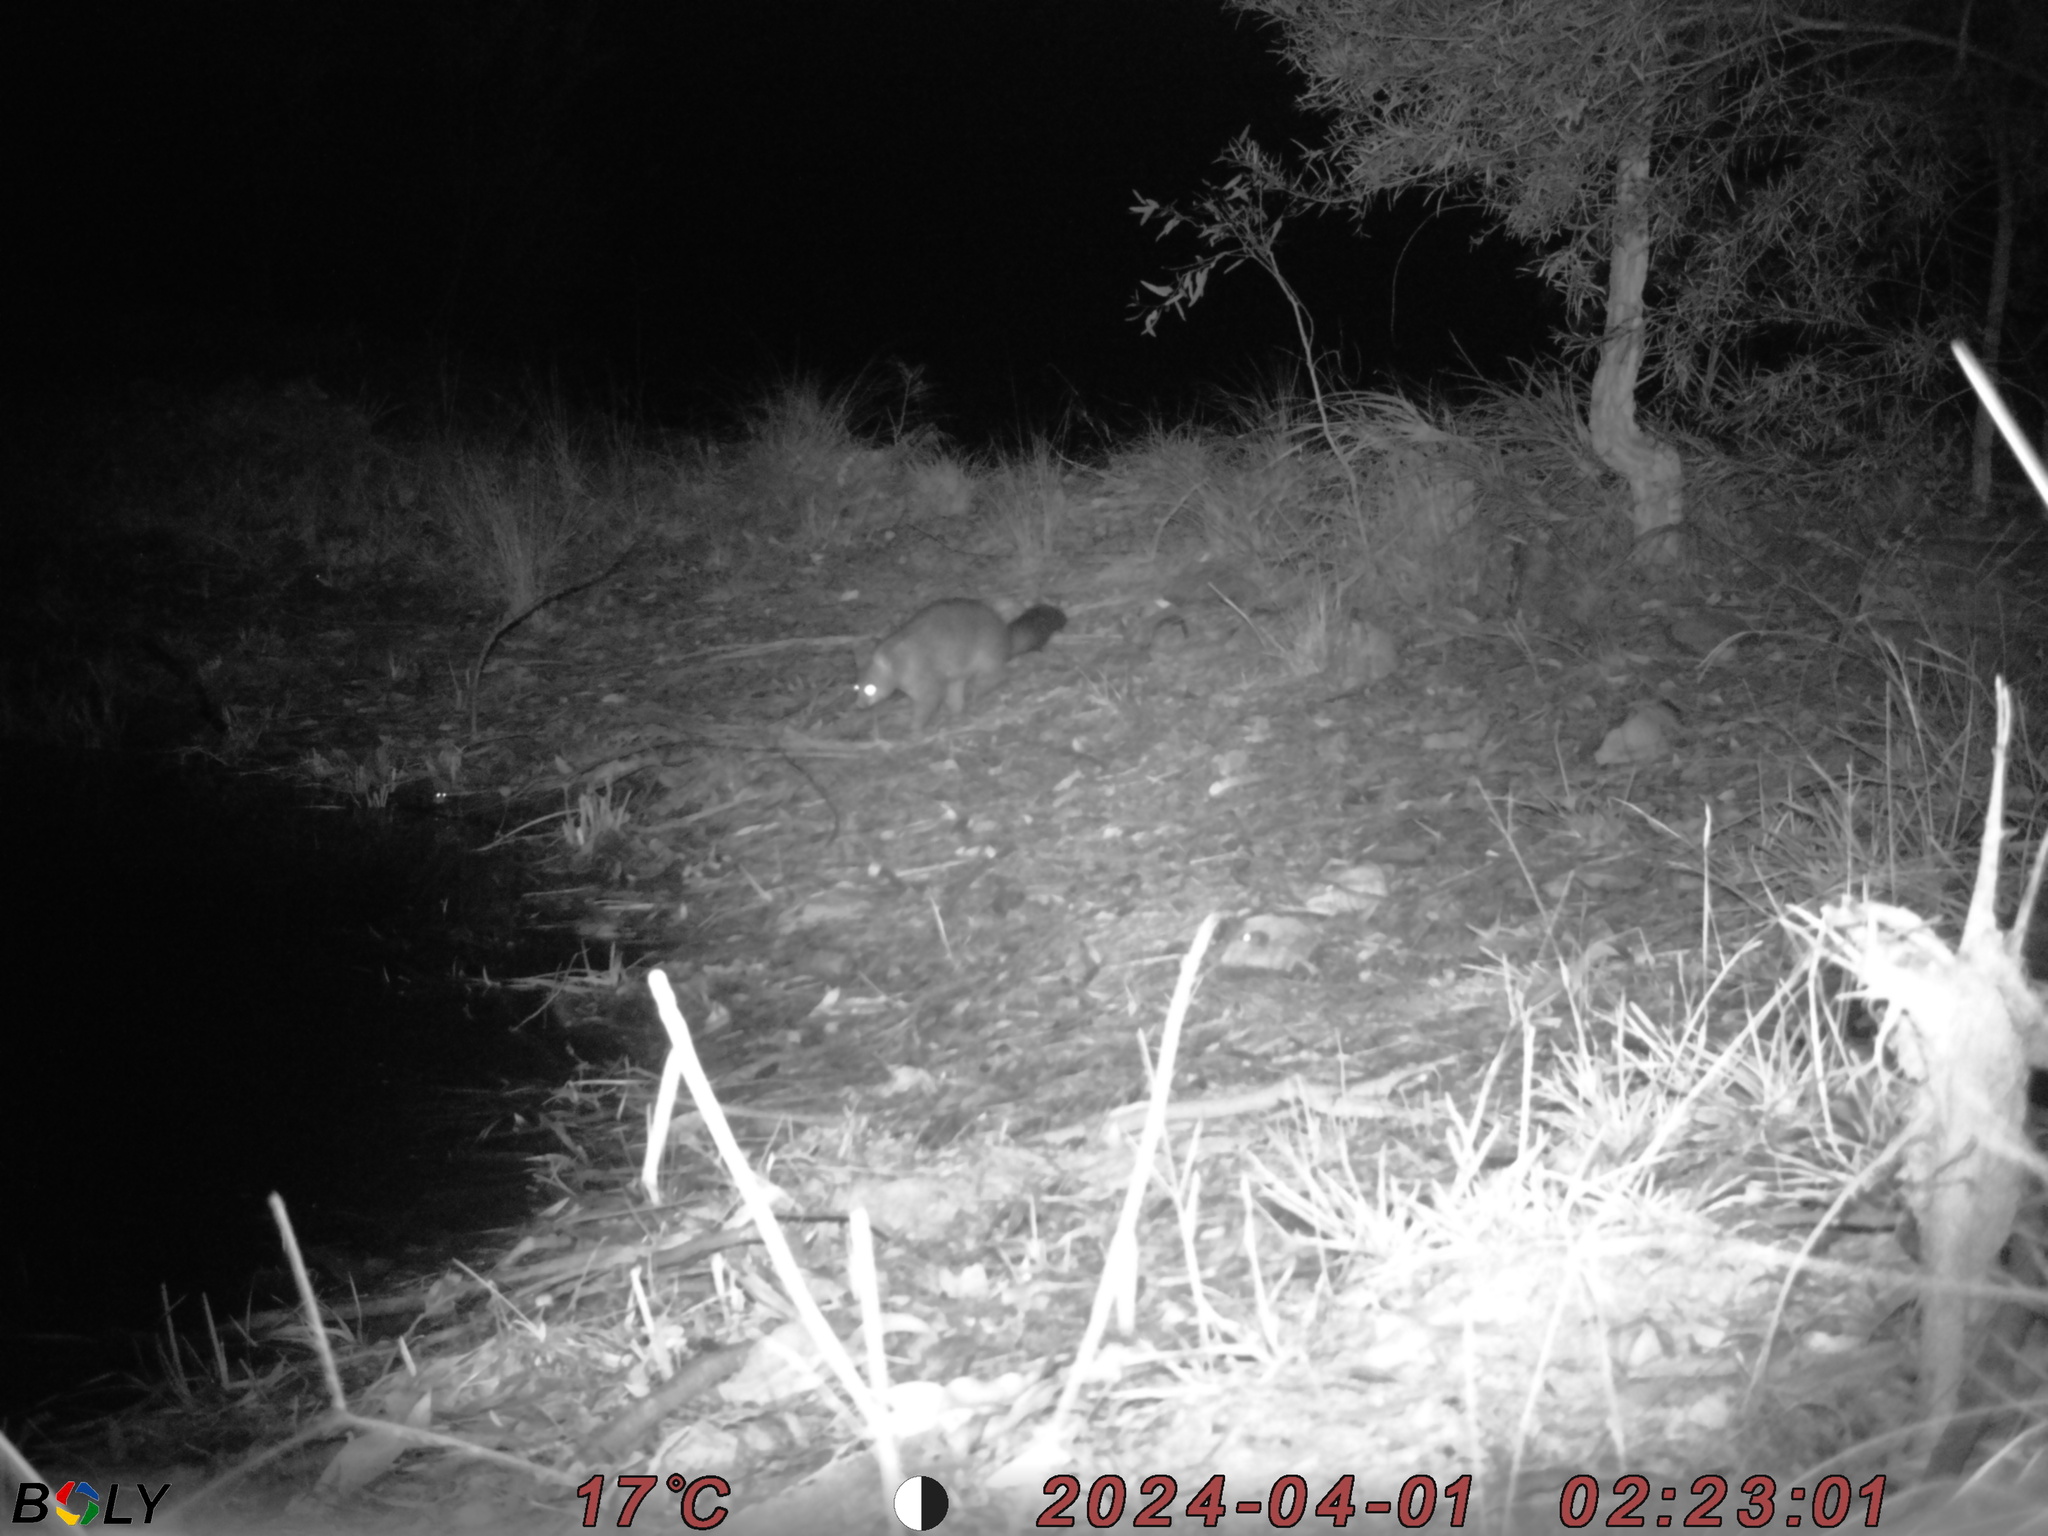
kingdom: Animalia
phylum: Chordata
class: Mammalia
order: Diprotodontia
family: Phalangeridae
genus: Trichosurus
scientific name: Trichosurus vulpecula
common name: Common brushtail
